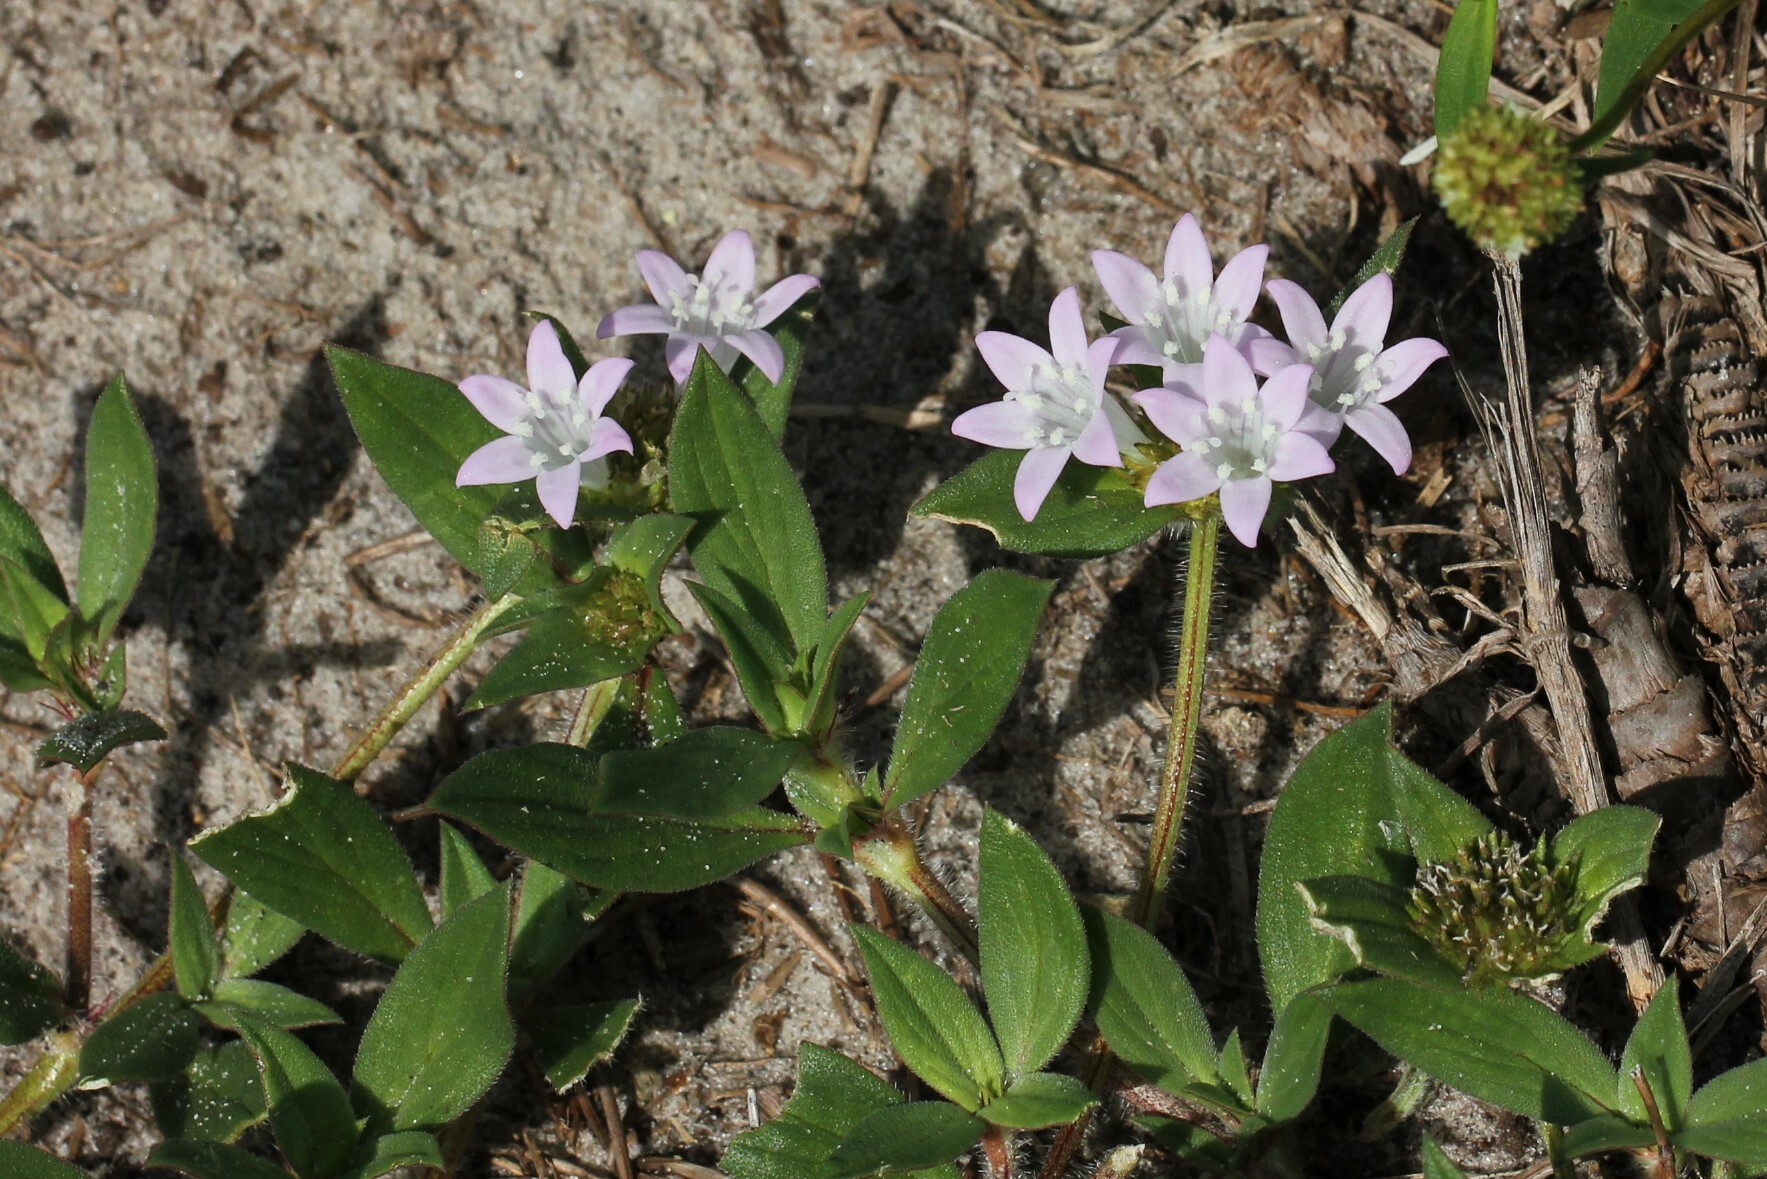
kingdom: Plantae
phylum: Tracheophyta
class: Magnoliopsida
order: Gentianales
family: Rubiaceae
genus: Richardia
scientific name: Richardia grandiflora
